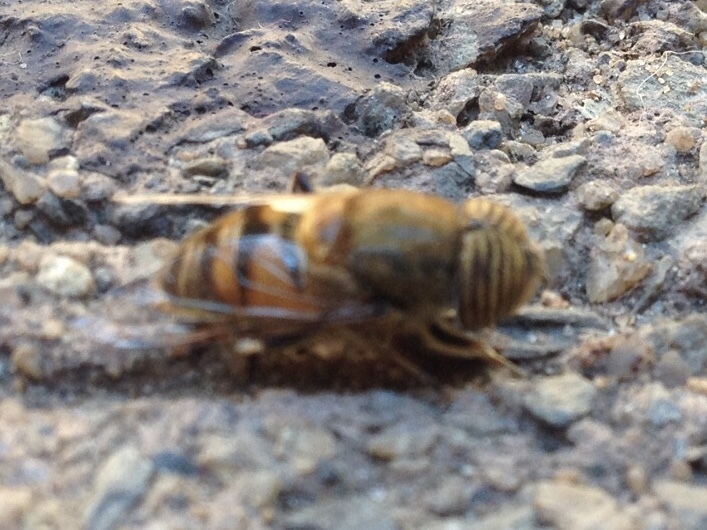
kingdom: Animalia
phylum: Arthropoda
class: Insecta
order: Diptera
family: Syrphidae
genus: Eristalinus
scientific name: Eristalinus taeniops
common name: Syrphid fly
